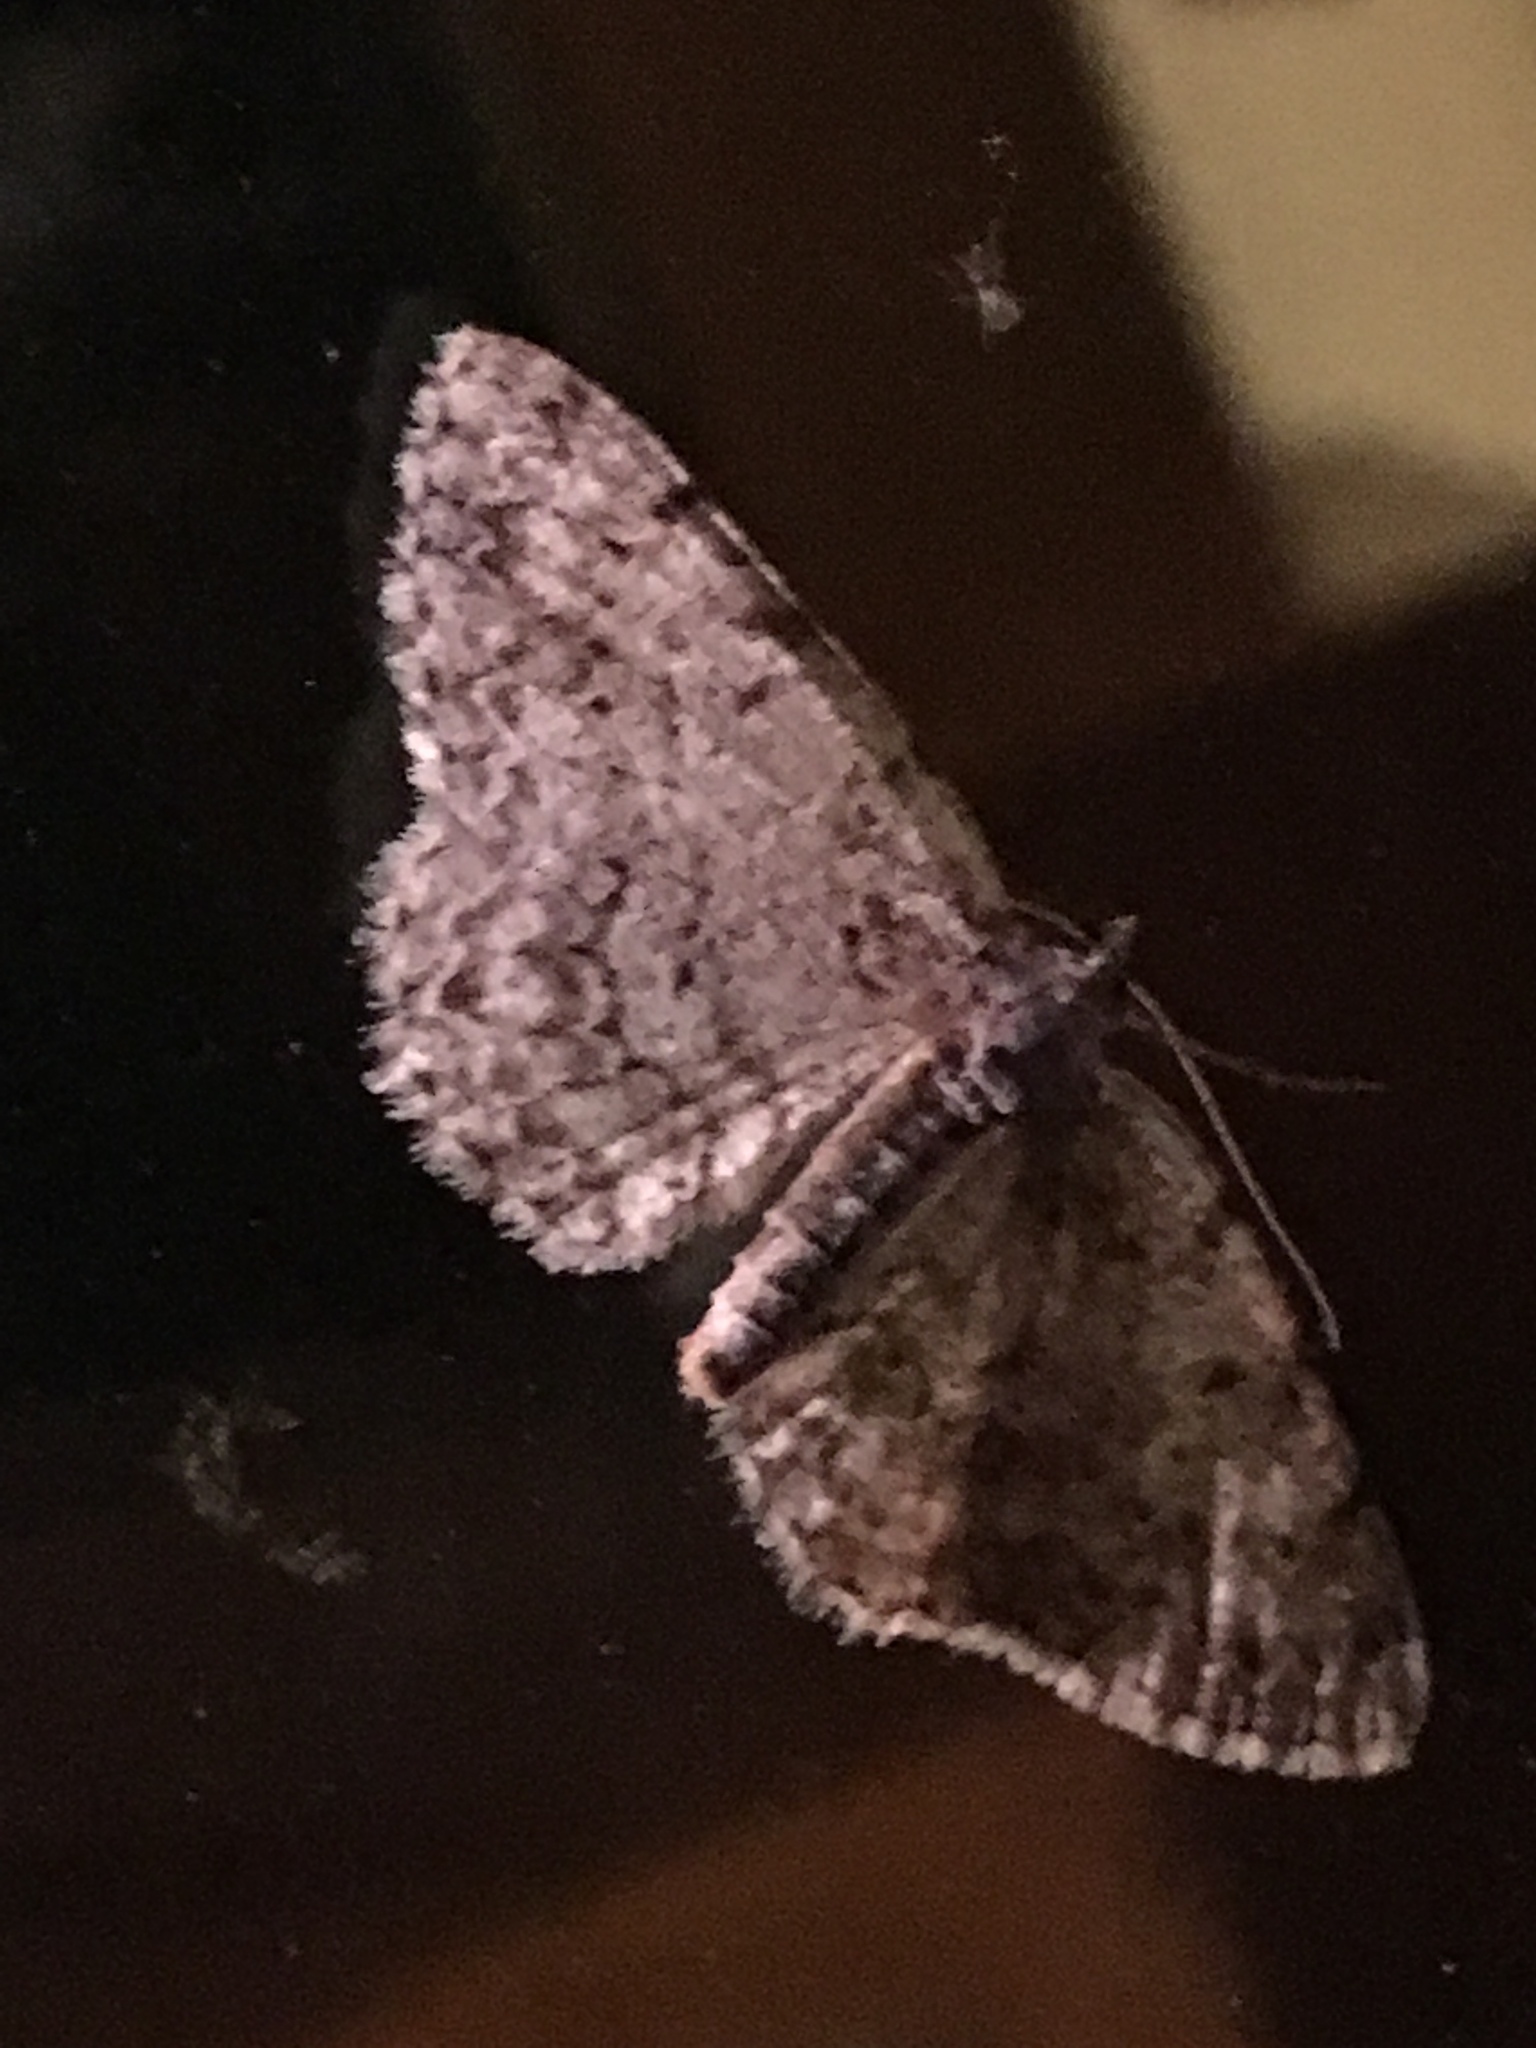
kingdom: Animalia
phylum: Arthropoda
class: Insecta
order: Lepidoptera
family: Geometridae
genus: Protoboarmia
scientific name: Protoboarmia porcelaria
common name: Porcelain gray
